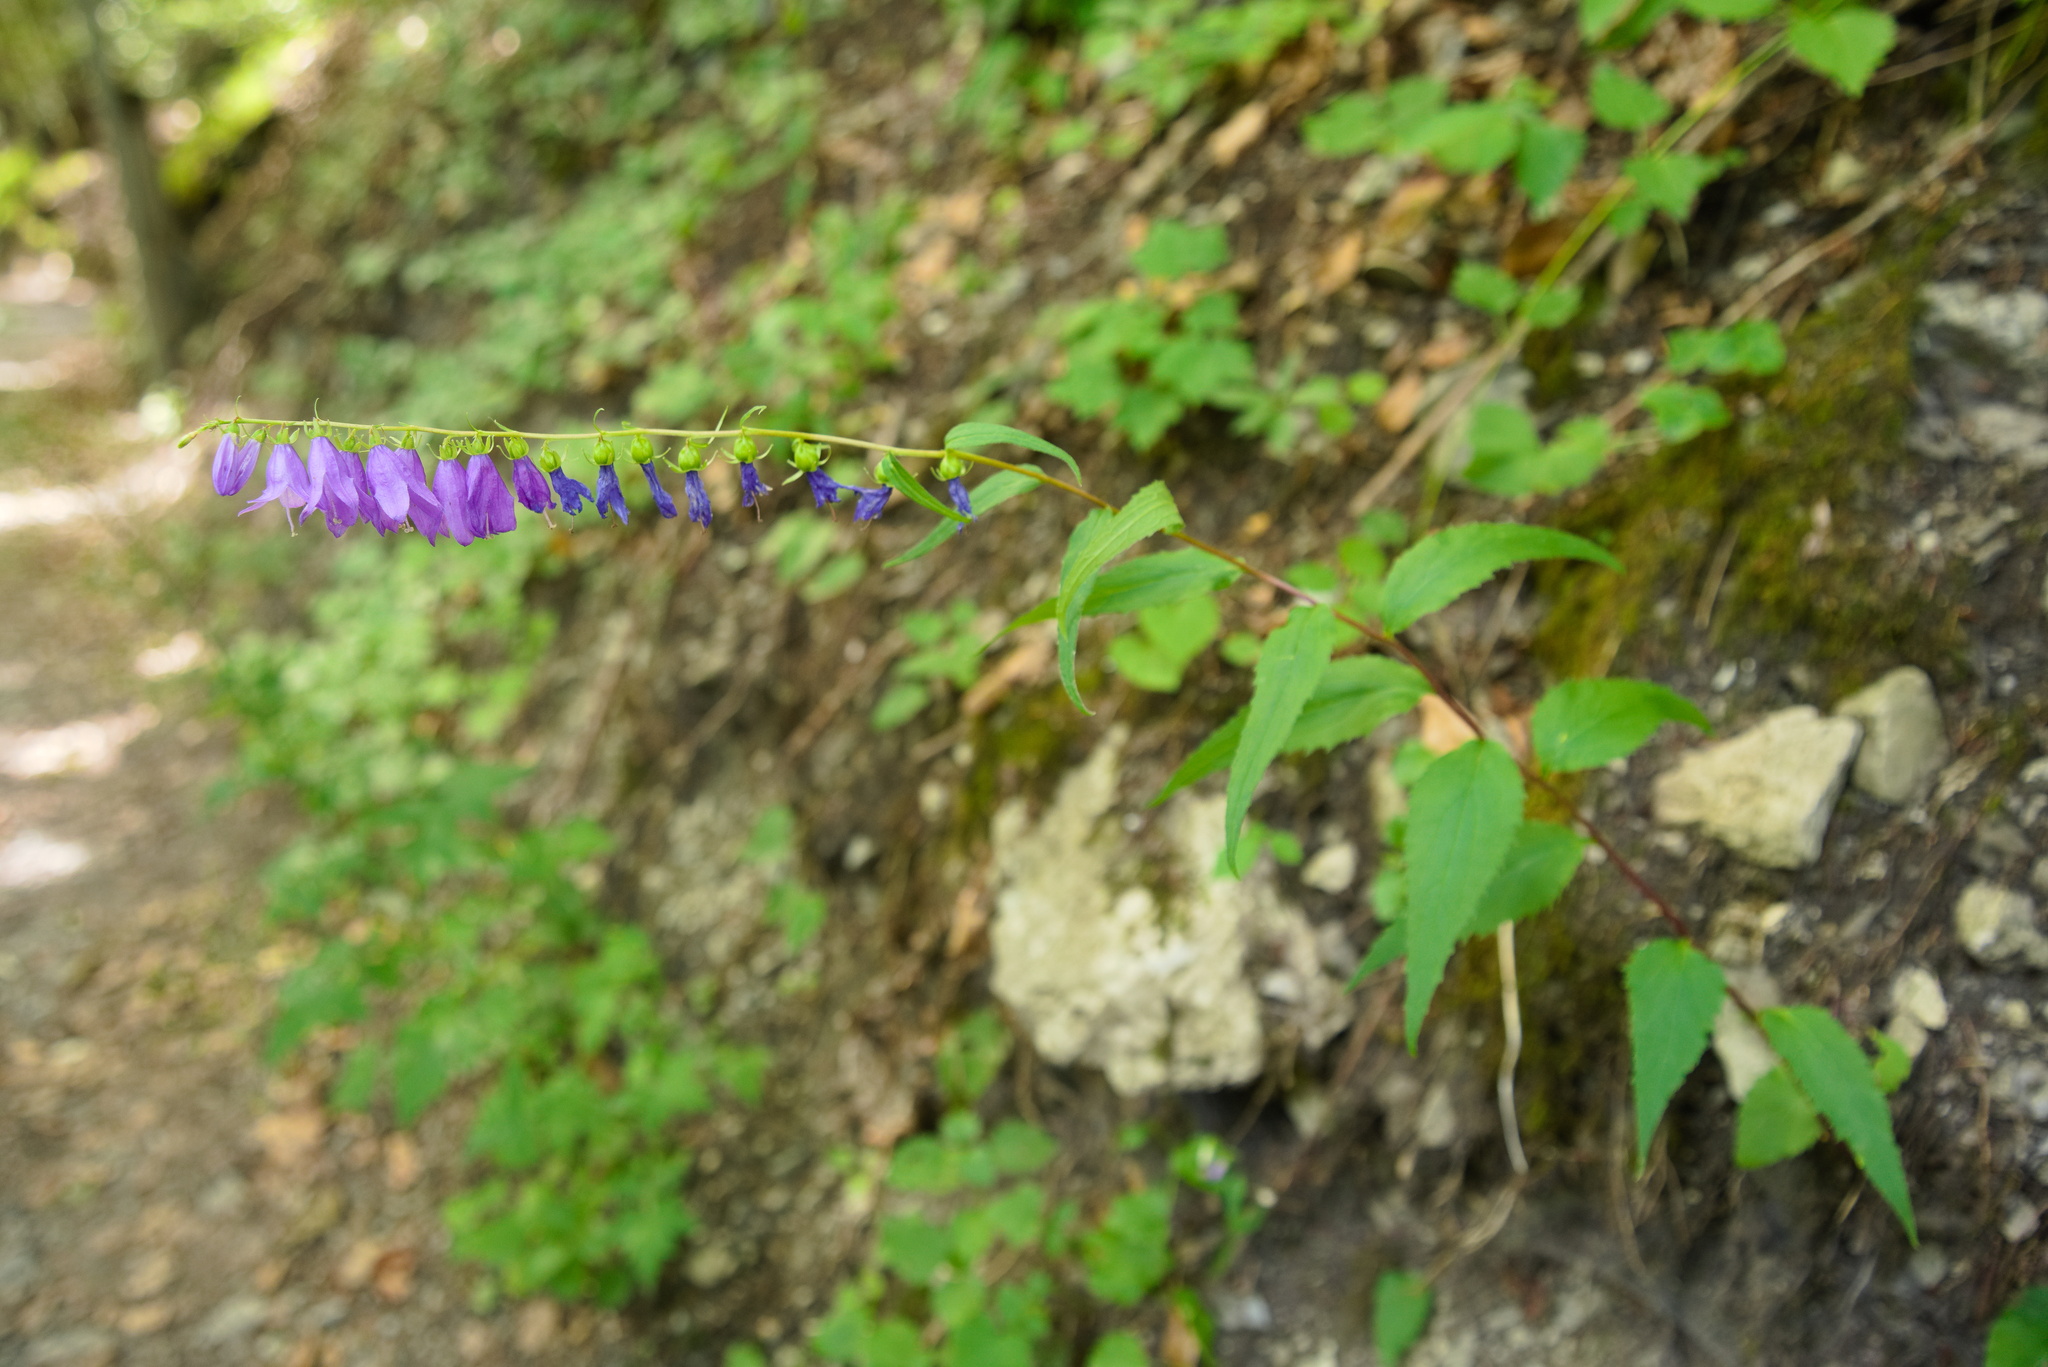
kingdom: Plantae
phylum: Tracheophyta
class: Magnoliopsida
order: Asterales
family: Campanulaceae
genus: Campanula
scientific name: Campanula rapunculoides
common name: Creeping bellflower
